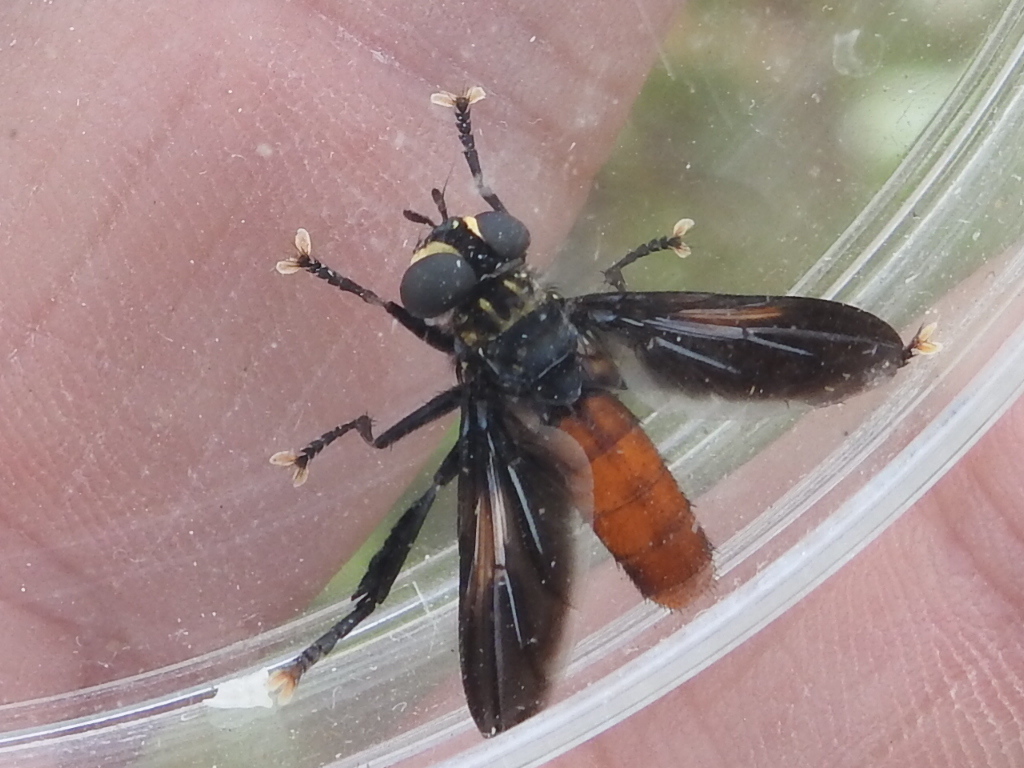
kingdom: Animalia
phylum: Arthropoda
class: Insecta
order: Diptera
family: Tachinidae
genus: Trichopoda
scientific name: Trichopoda pennipes
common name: Tachinid fly
